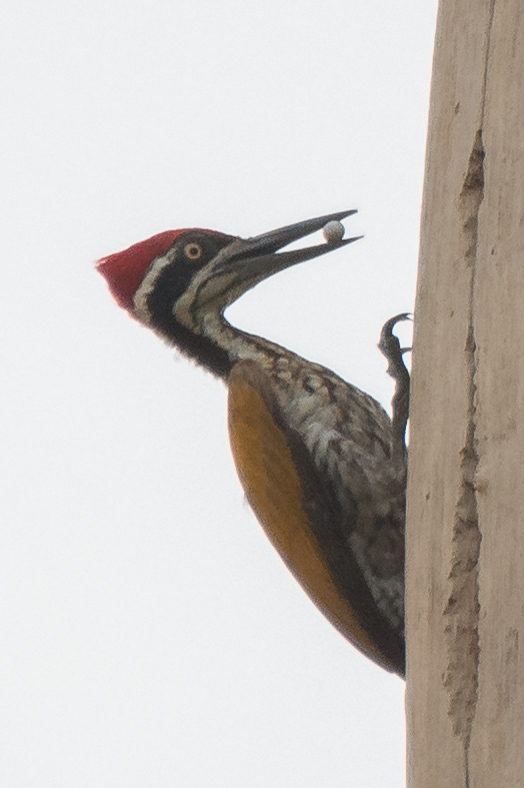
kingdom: Animalia
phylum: Chordata
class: Aves
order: Piciformes
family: Picidae
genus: Chrysocolaptes
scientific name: Chrysocolaptes guttacristatus
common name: Greater flameback
